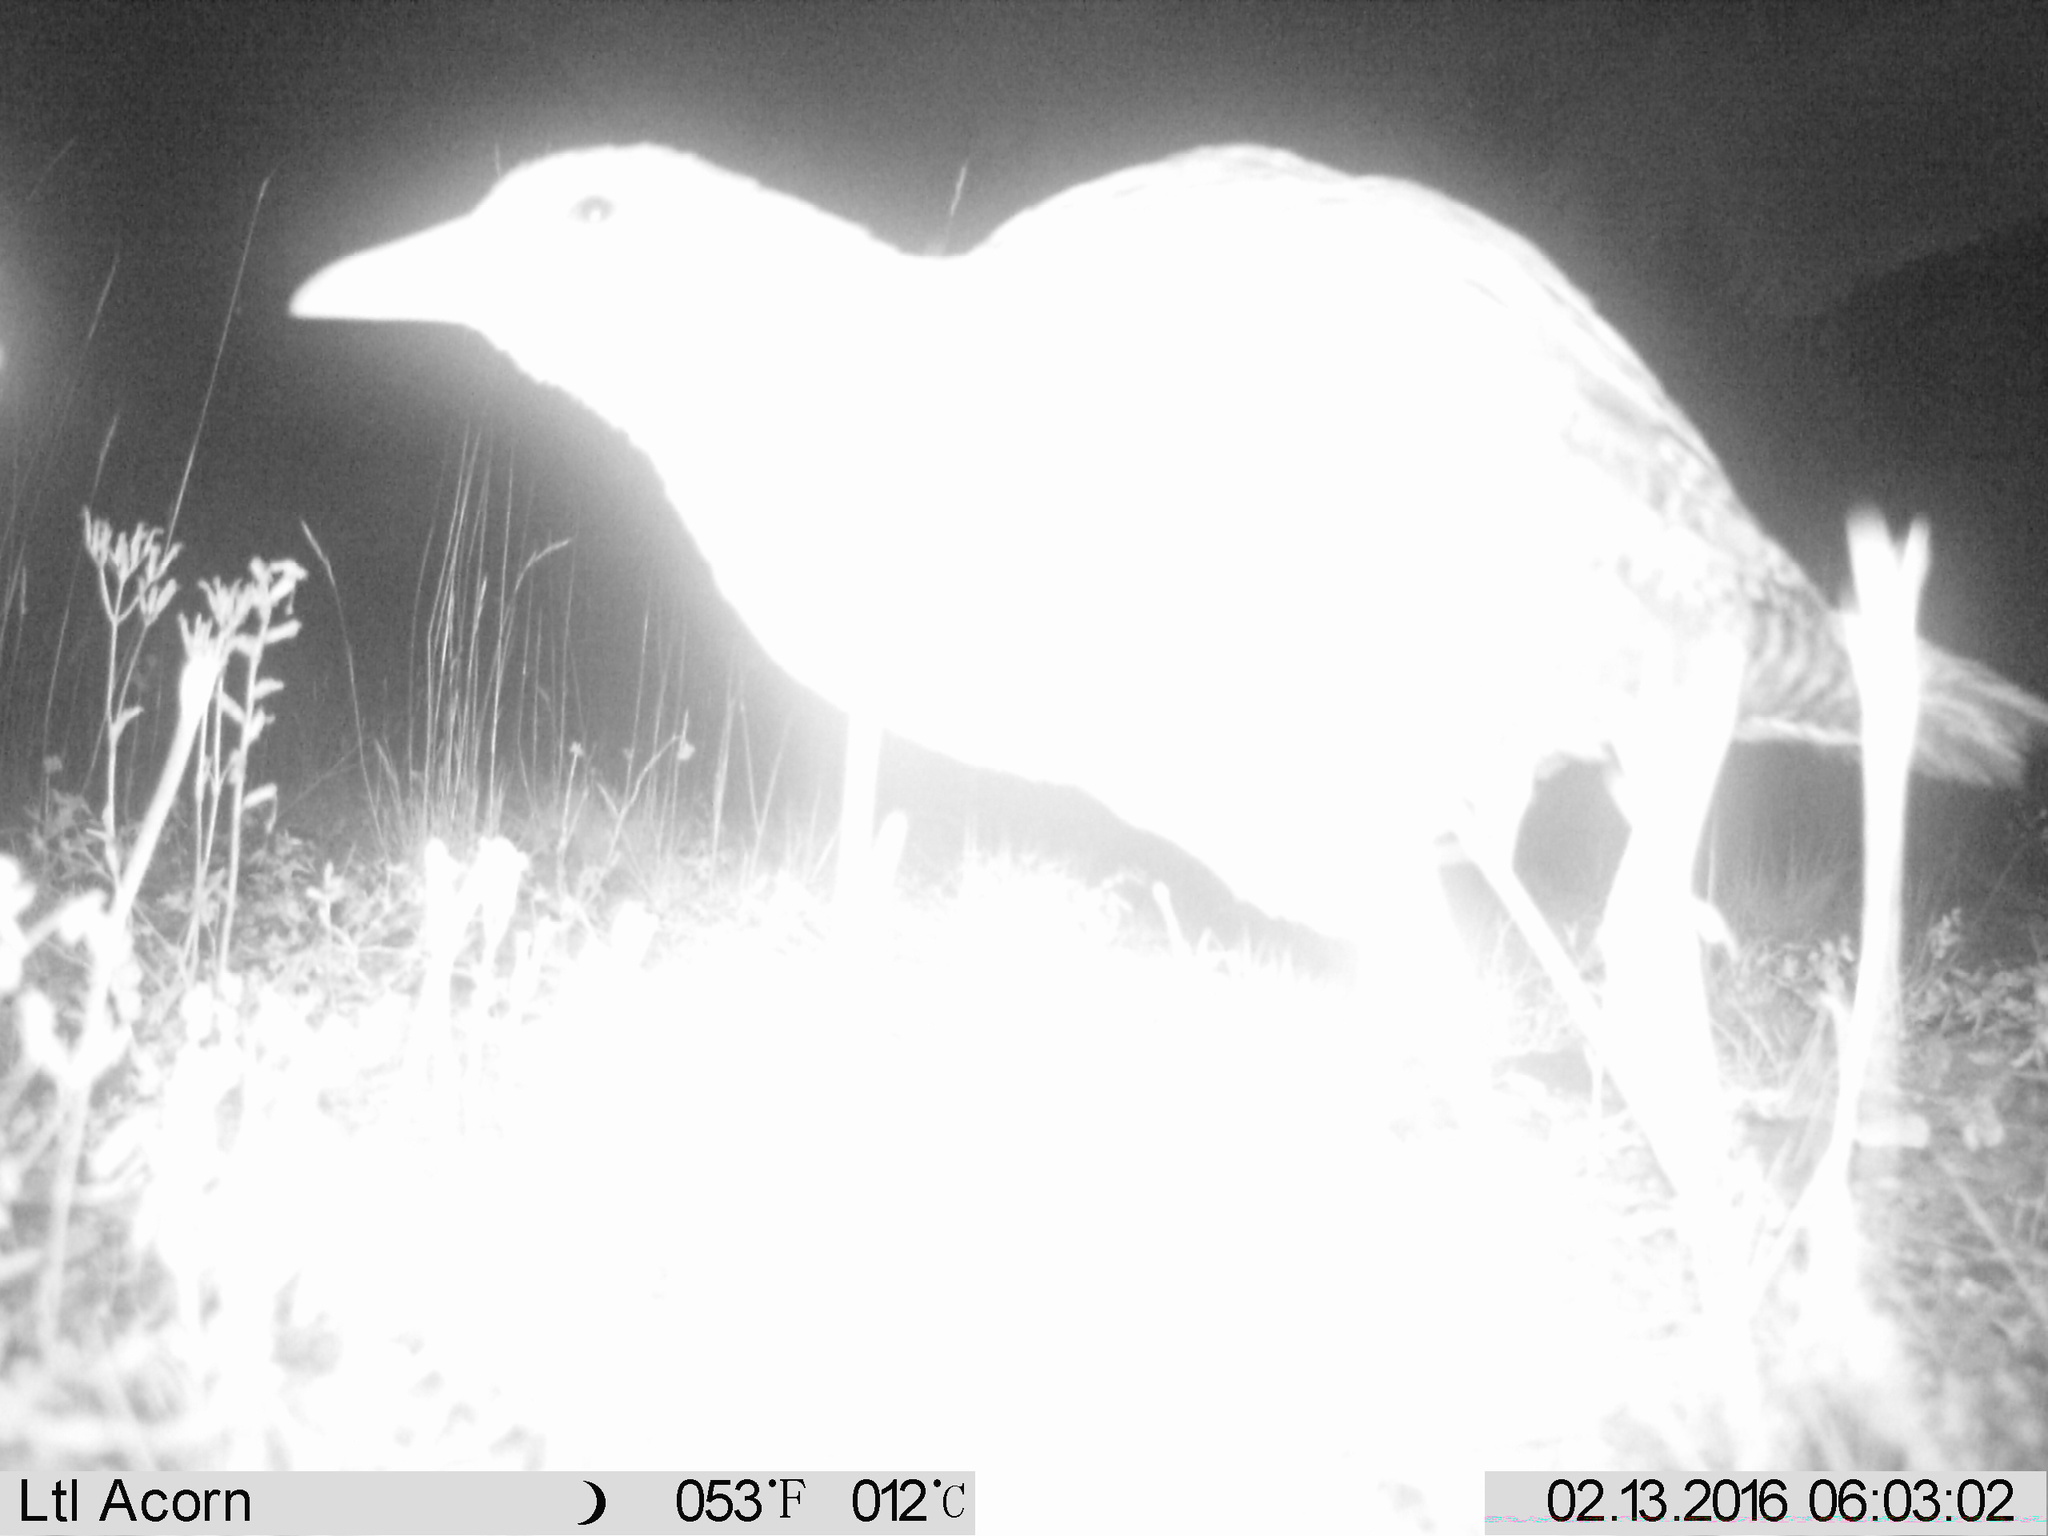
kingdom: Animalia
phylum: Chordata
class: Aves
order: Gruiformes
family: Rallidae
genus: Gallirallus
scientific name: Gallirallus australis
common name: Weka
